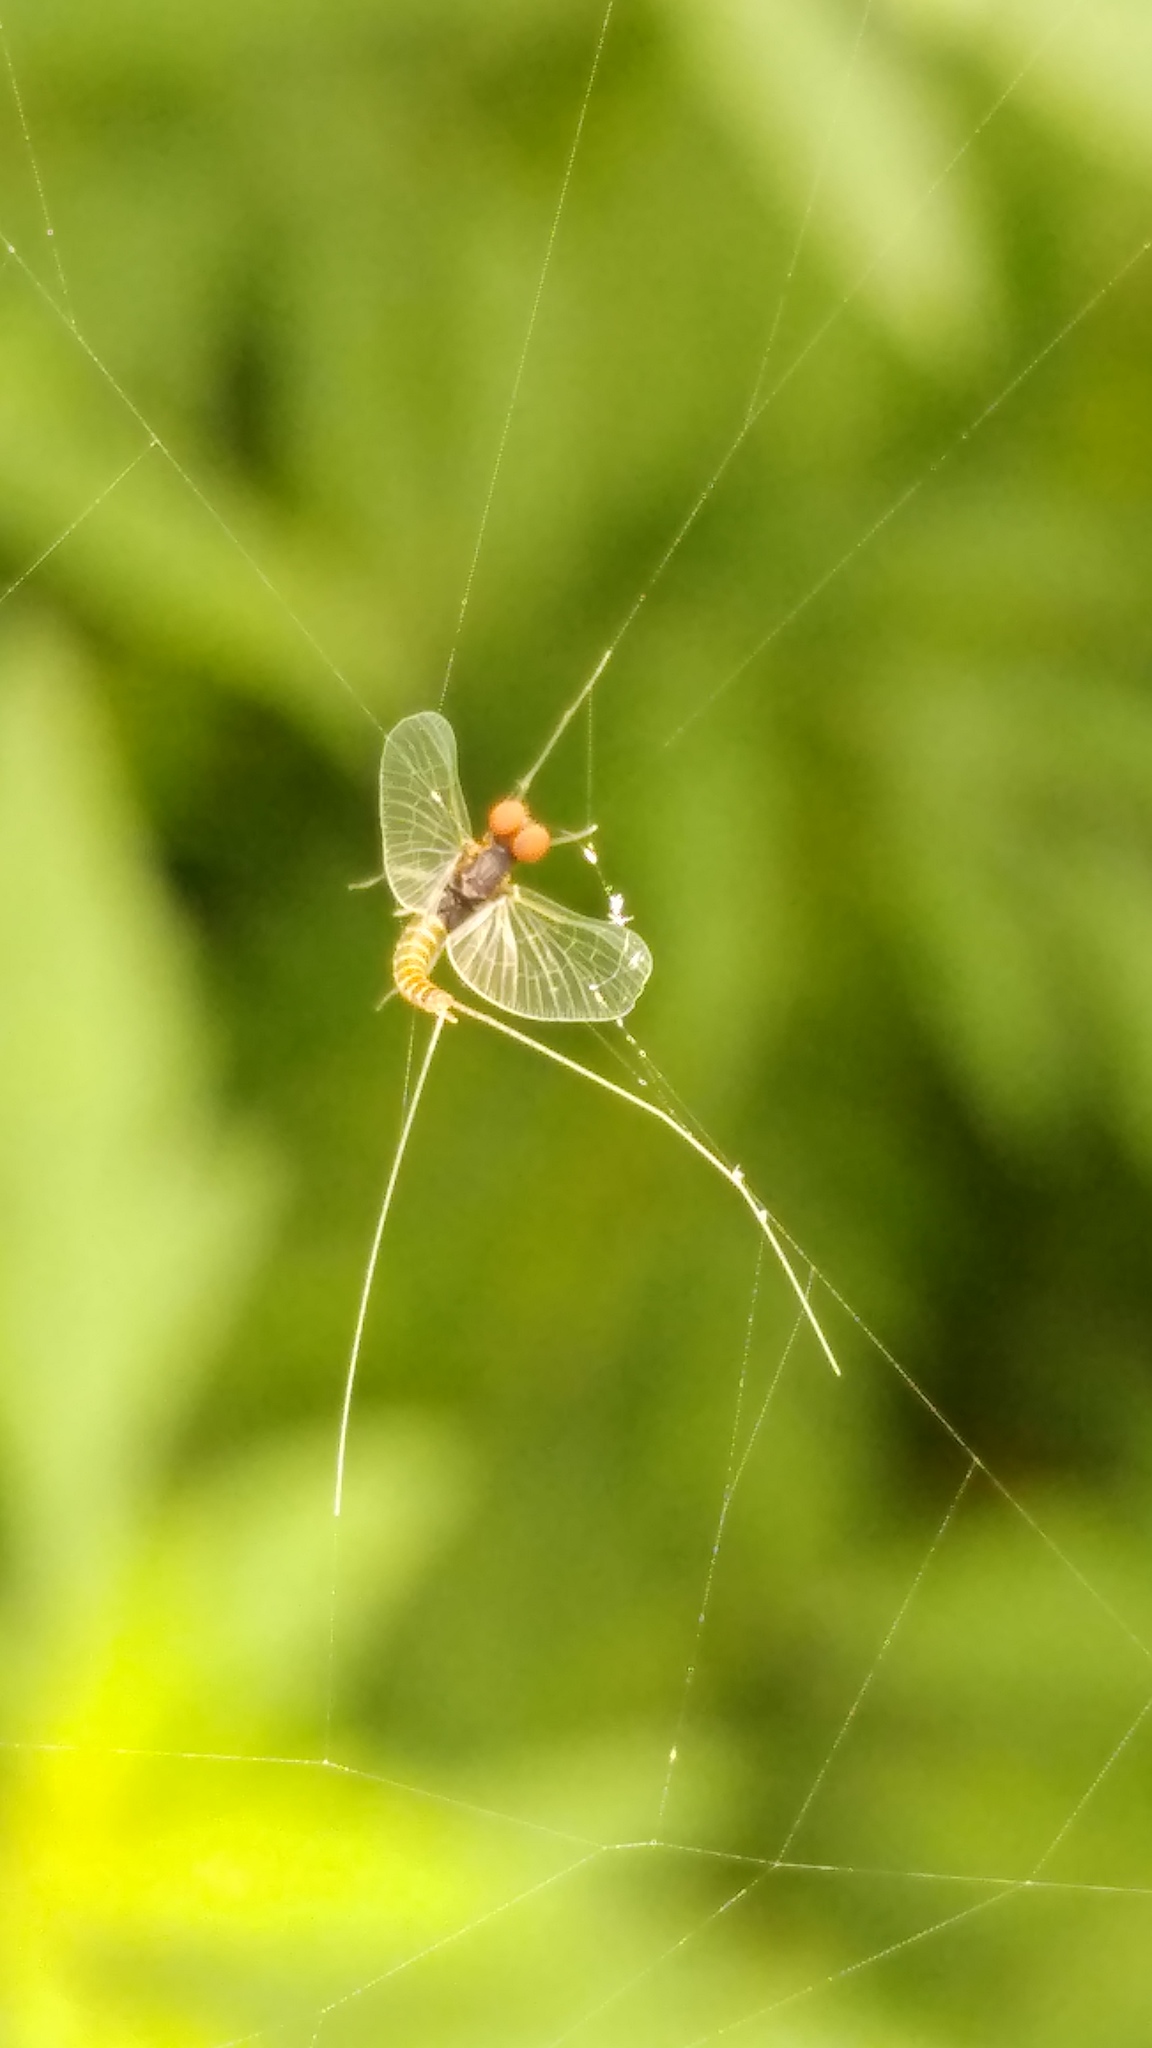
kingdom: Animalia
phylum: Arthropoda
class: Insecta
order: Ephemeroptera
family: Baetidae
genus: Procloeon
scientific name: Procloeon rufostrigatum
